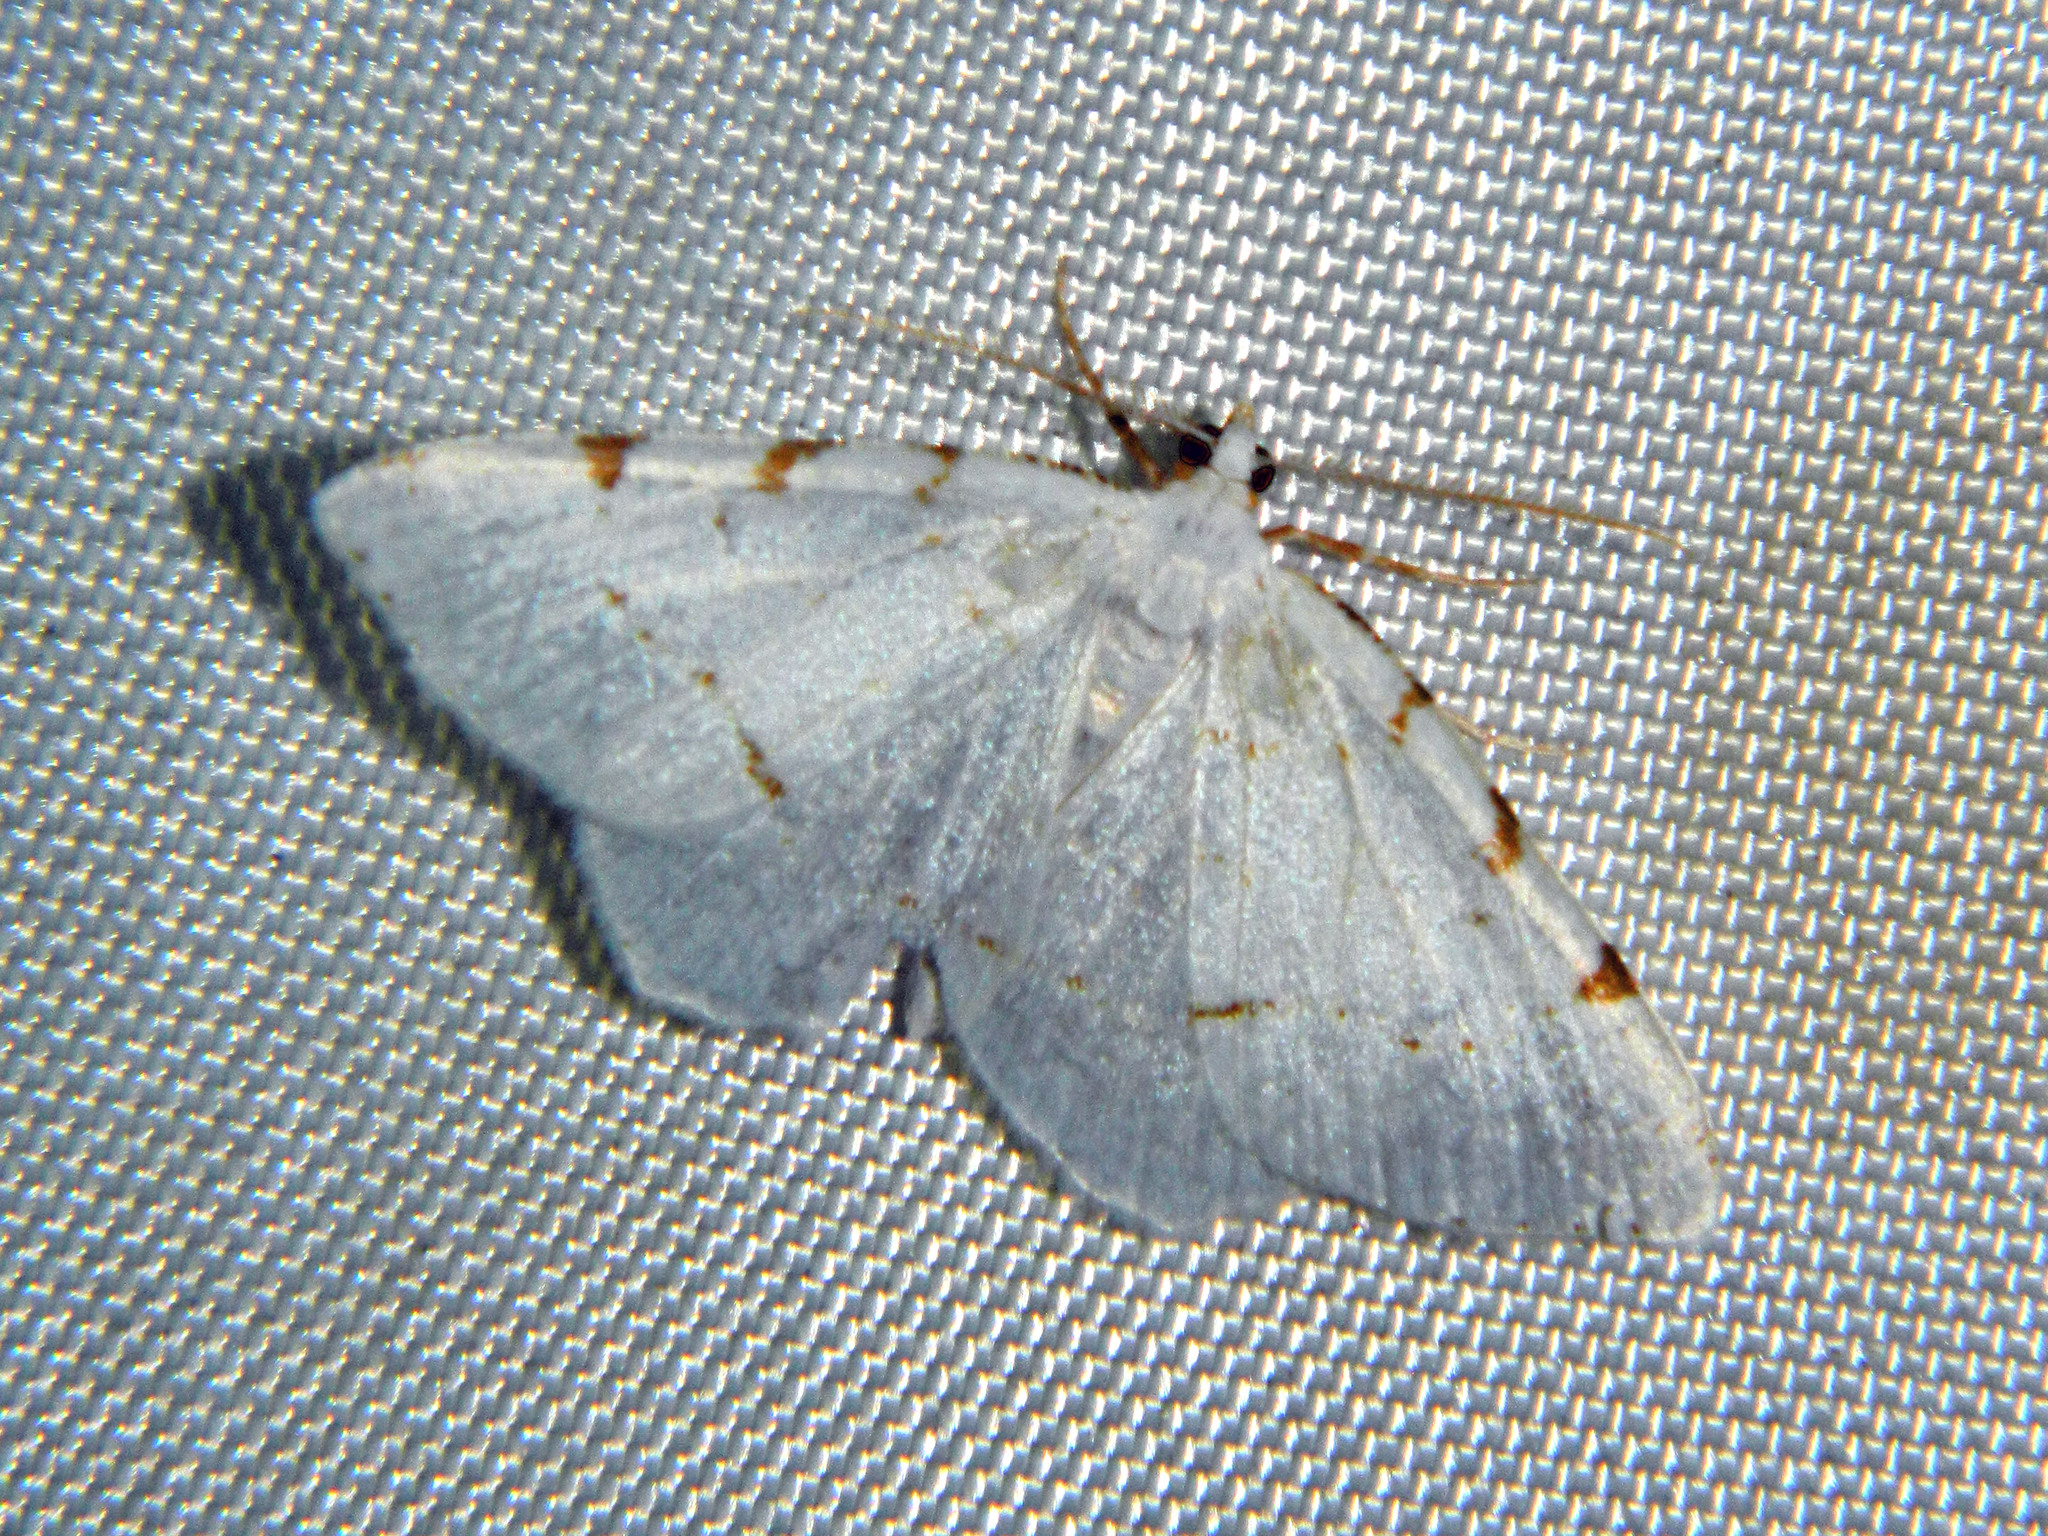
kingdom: Animalia
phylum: Arthropoda
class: Insecta
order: Lepidoptera
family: Geometridae
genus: Macaria
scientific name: Macaria pustularia
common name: Lesser maple spanworm moth
